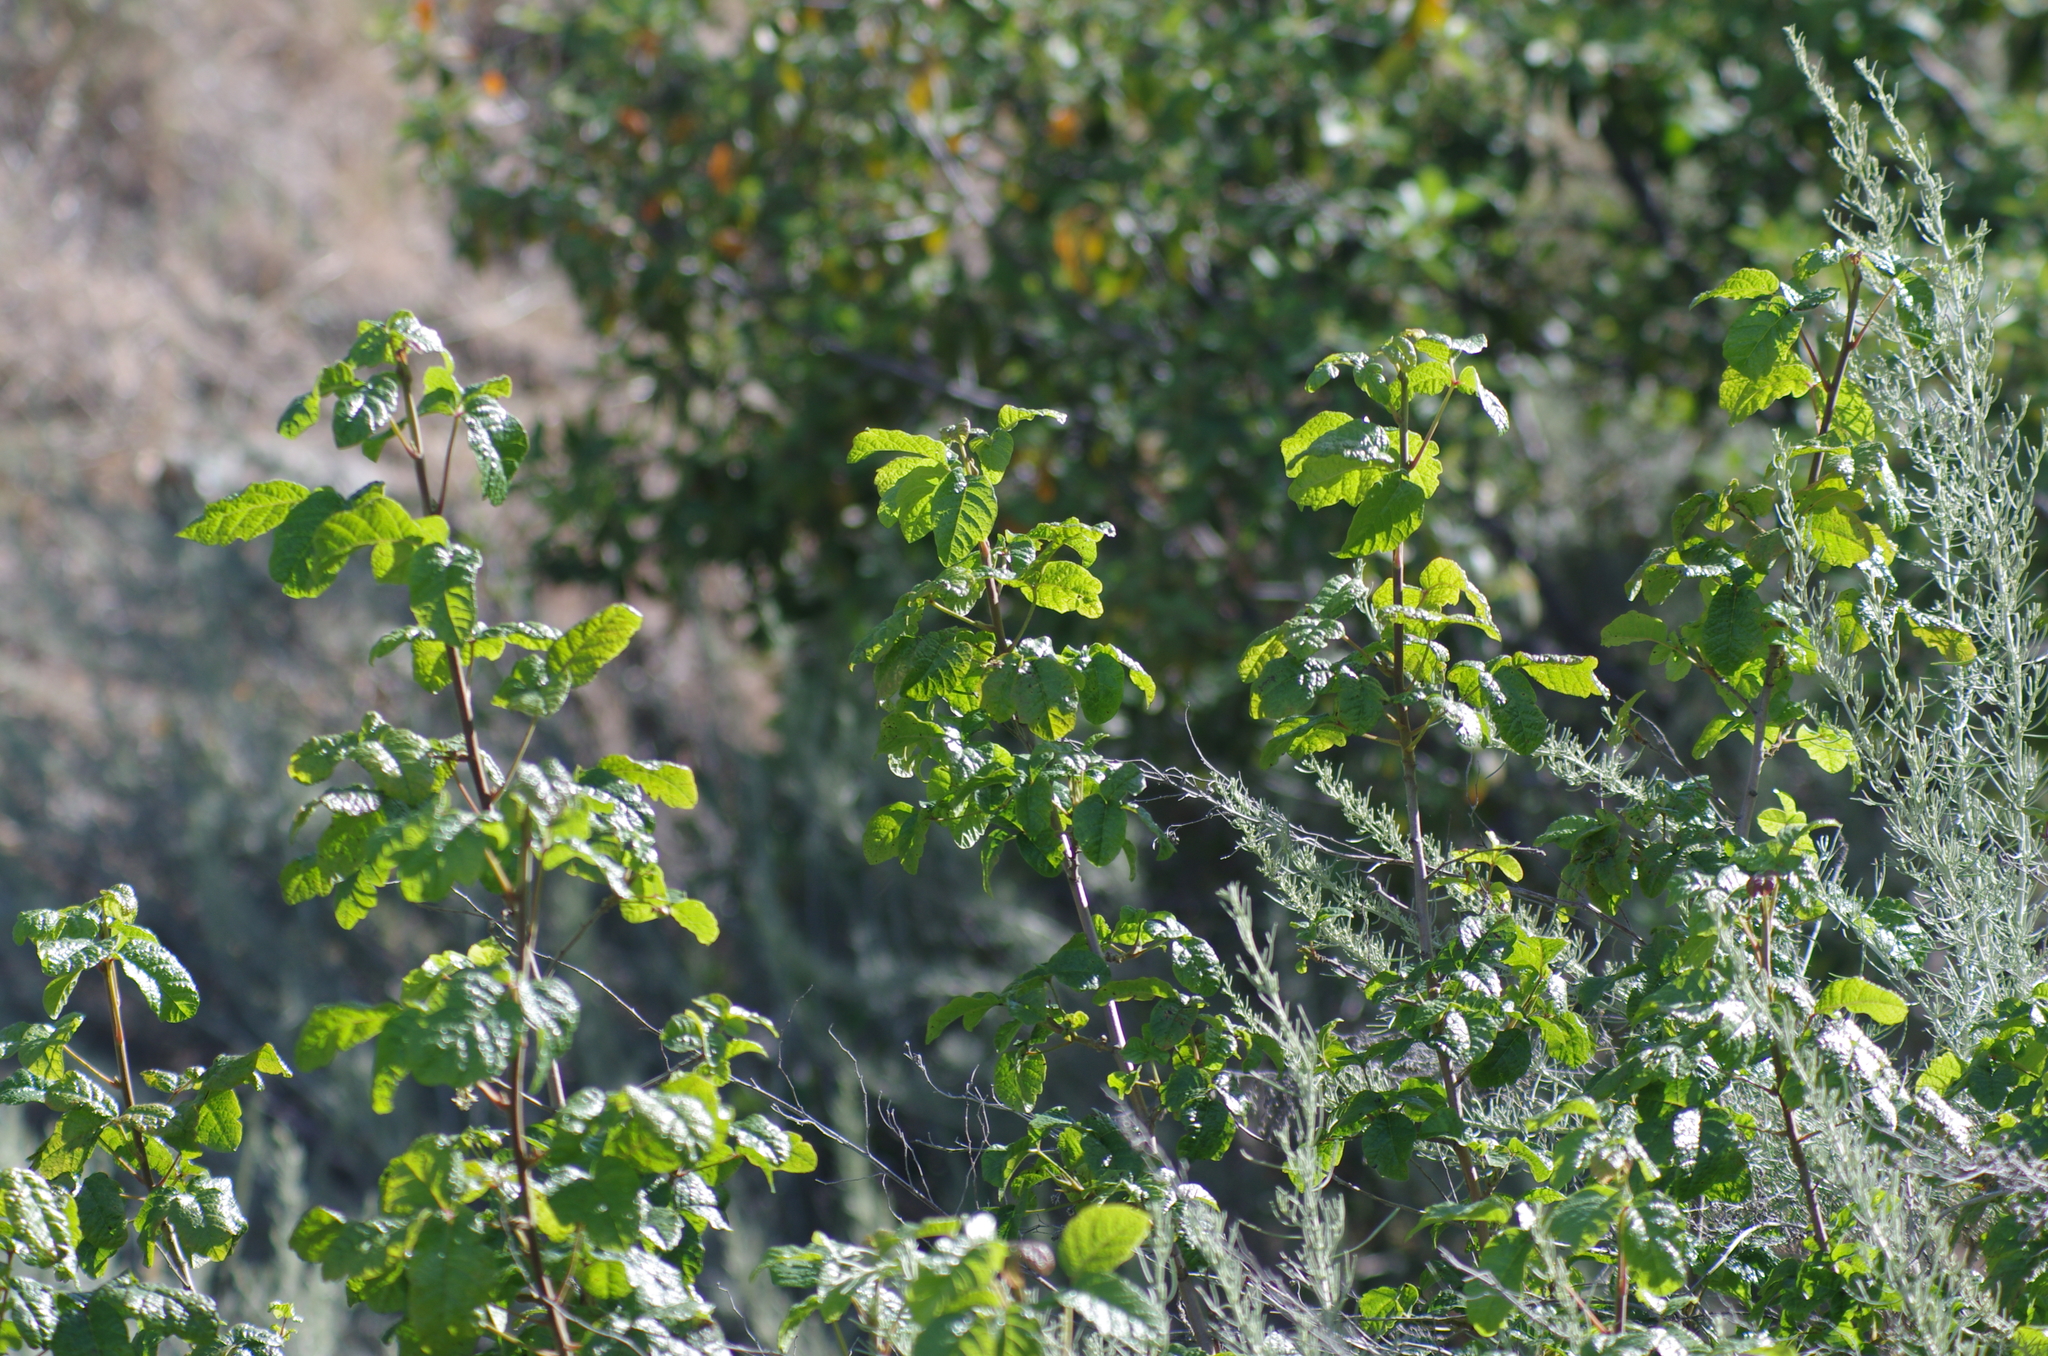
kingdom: Plantae
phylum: Tracheophyta
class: Magnoliopsida
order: Sapindales
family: Anacardiaceae
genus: Toxicodendron
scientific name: Toxicodendron diversilobum
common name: Pacific poison-oak
